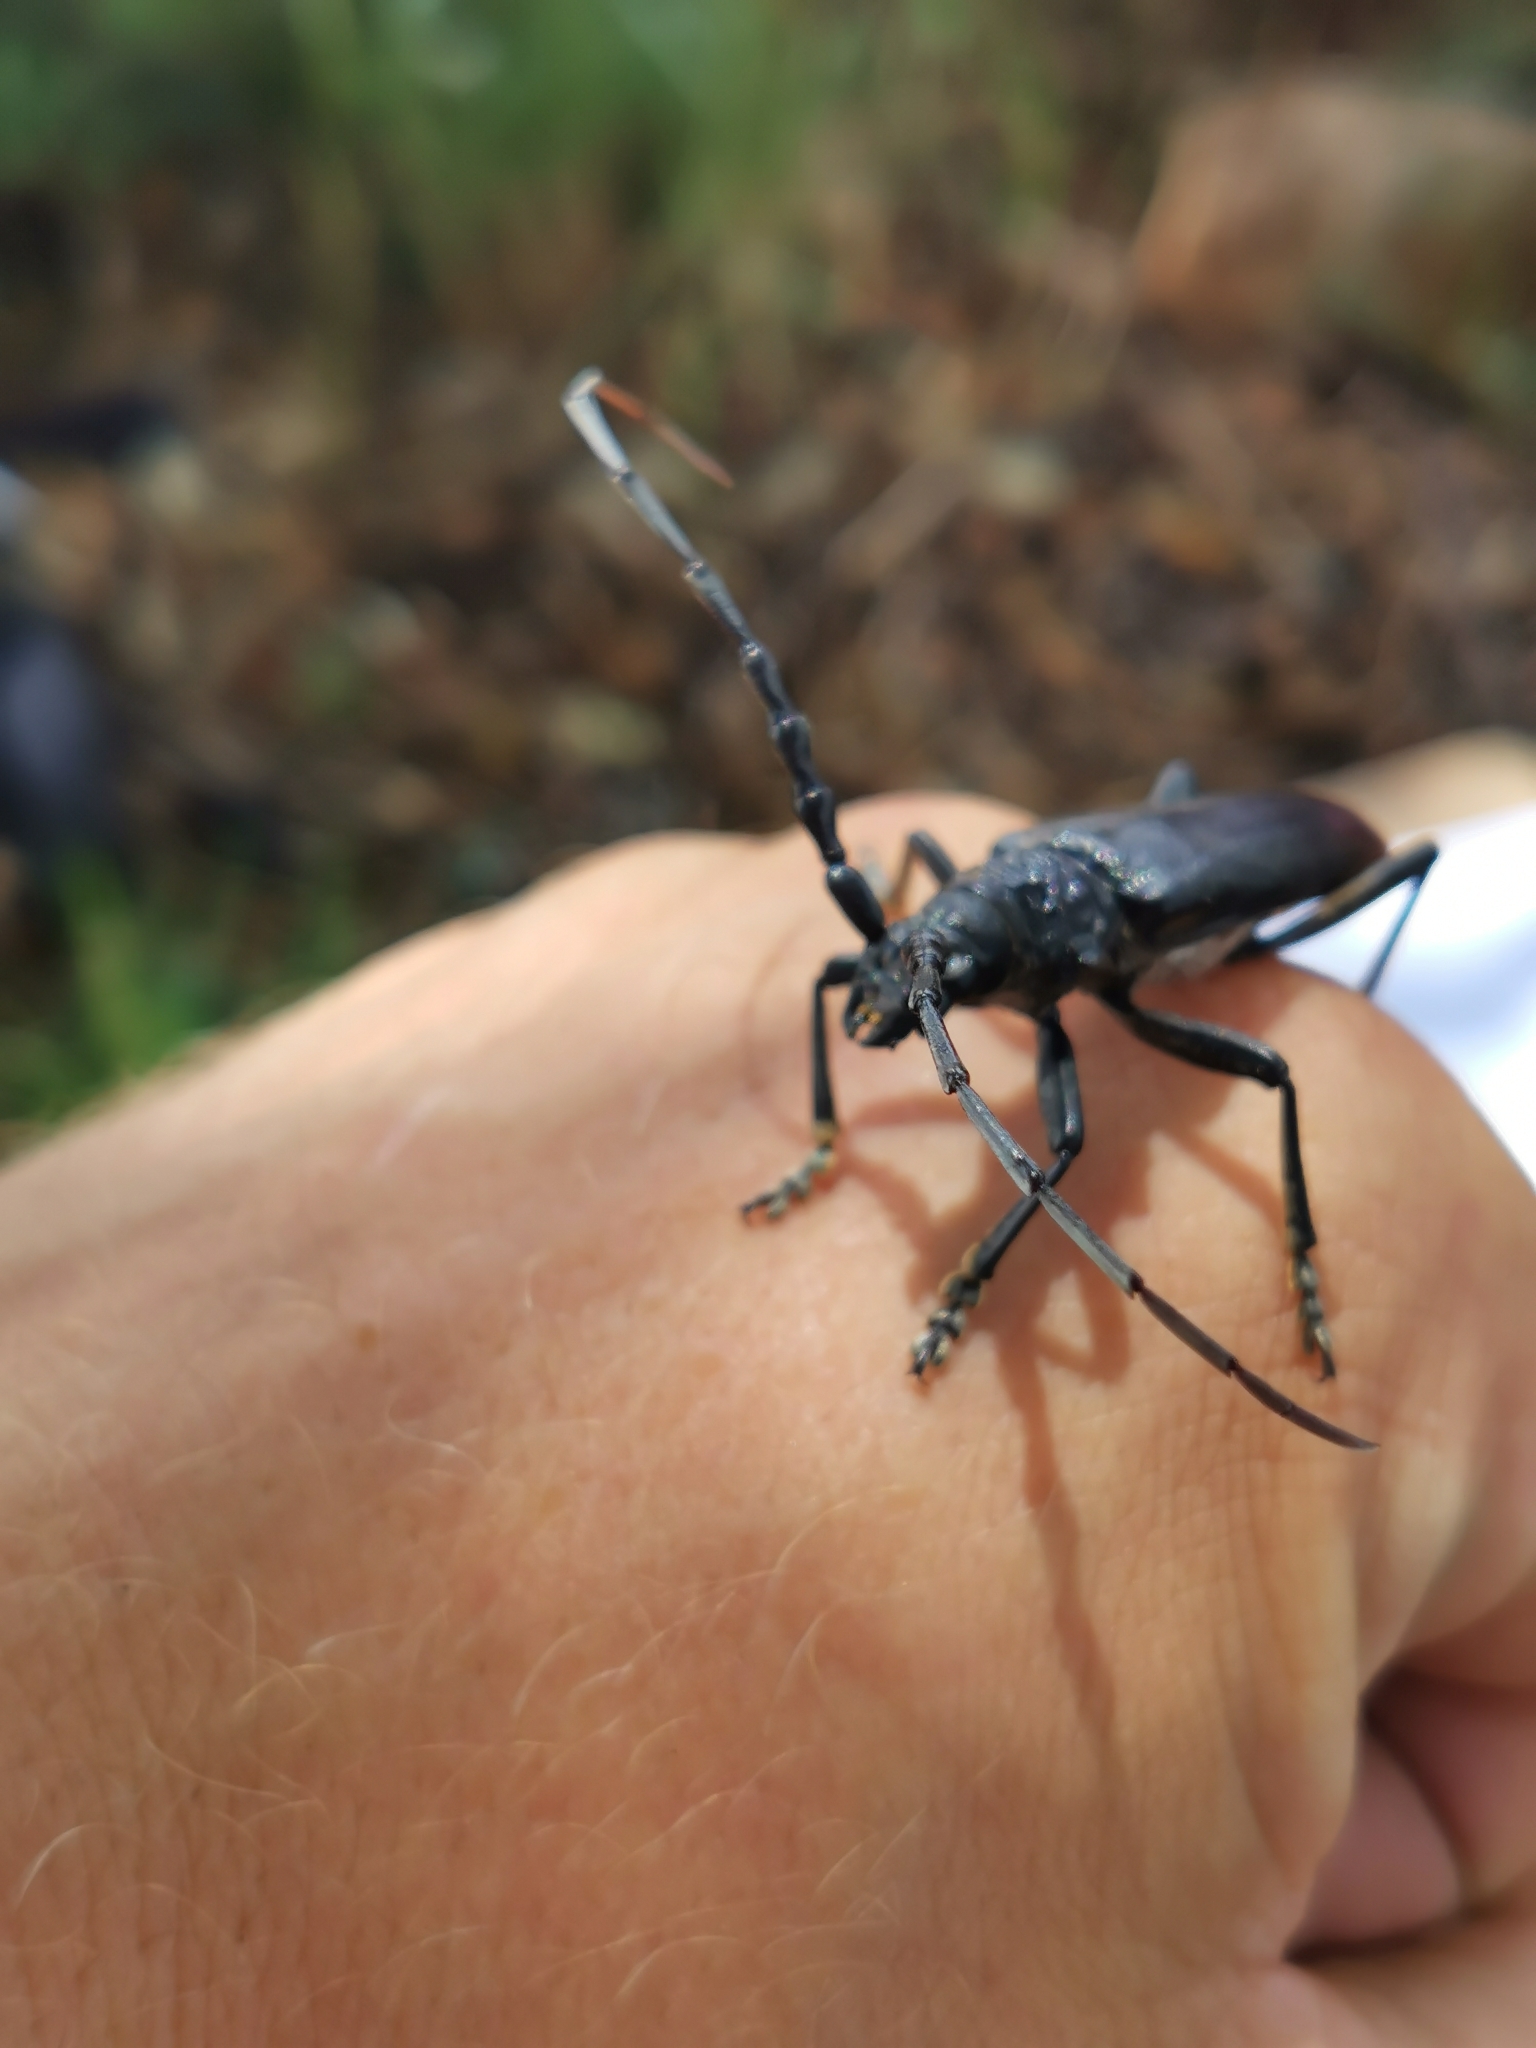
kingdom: Animalia
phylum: Arthropoda
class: Insecta
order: Coleoptera
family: Cerambycidae
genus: Cerambyx
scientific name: Cerambyx cerdo
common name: Cerambyx longicorn
